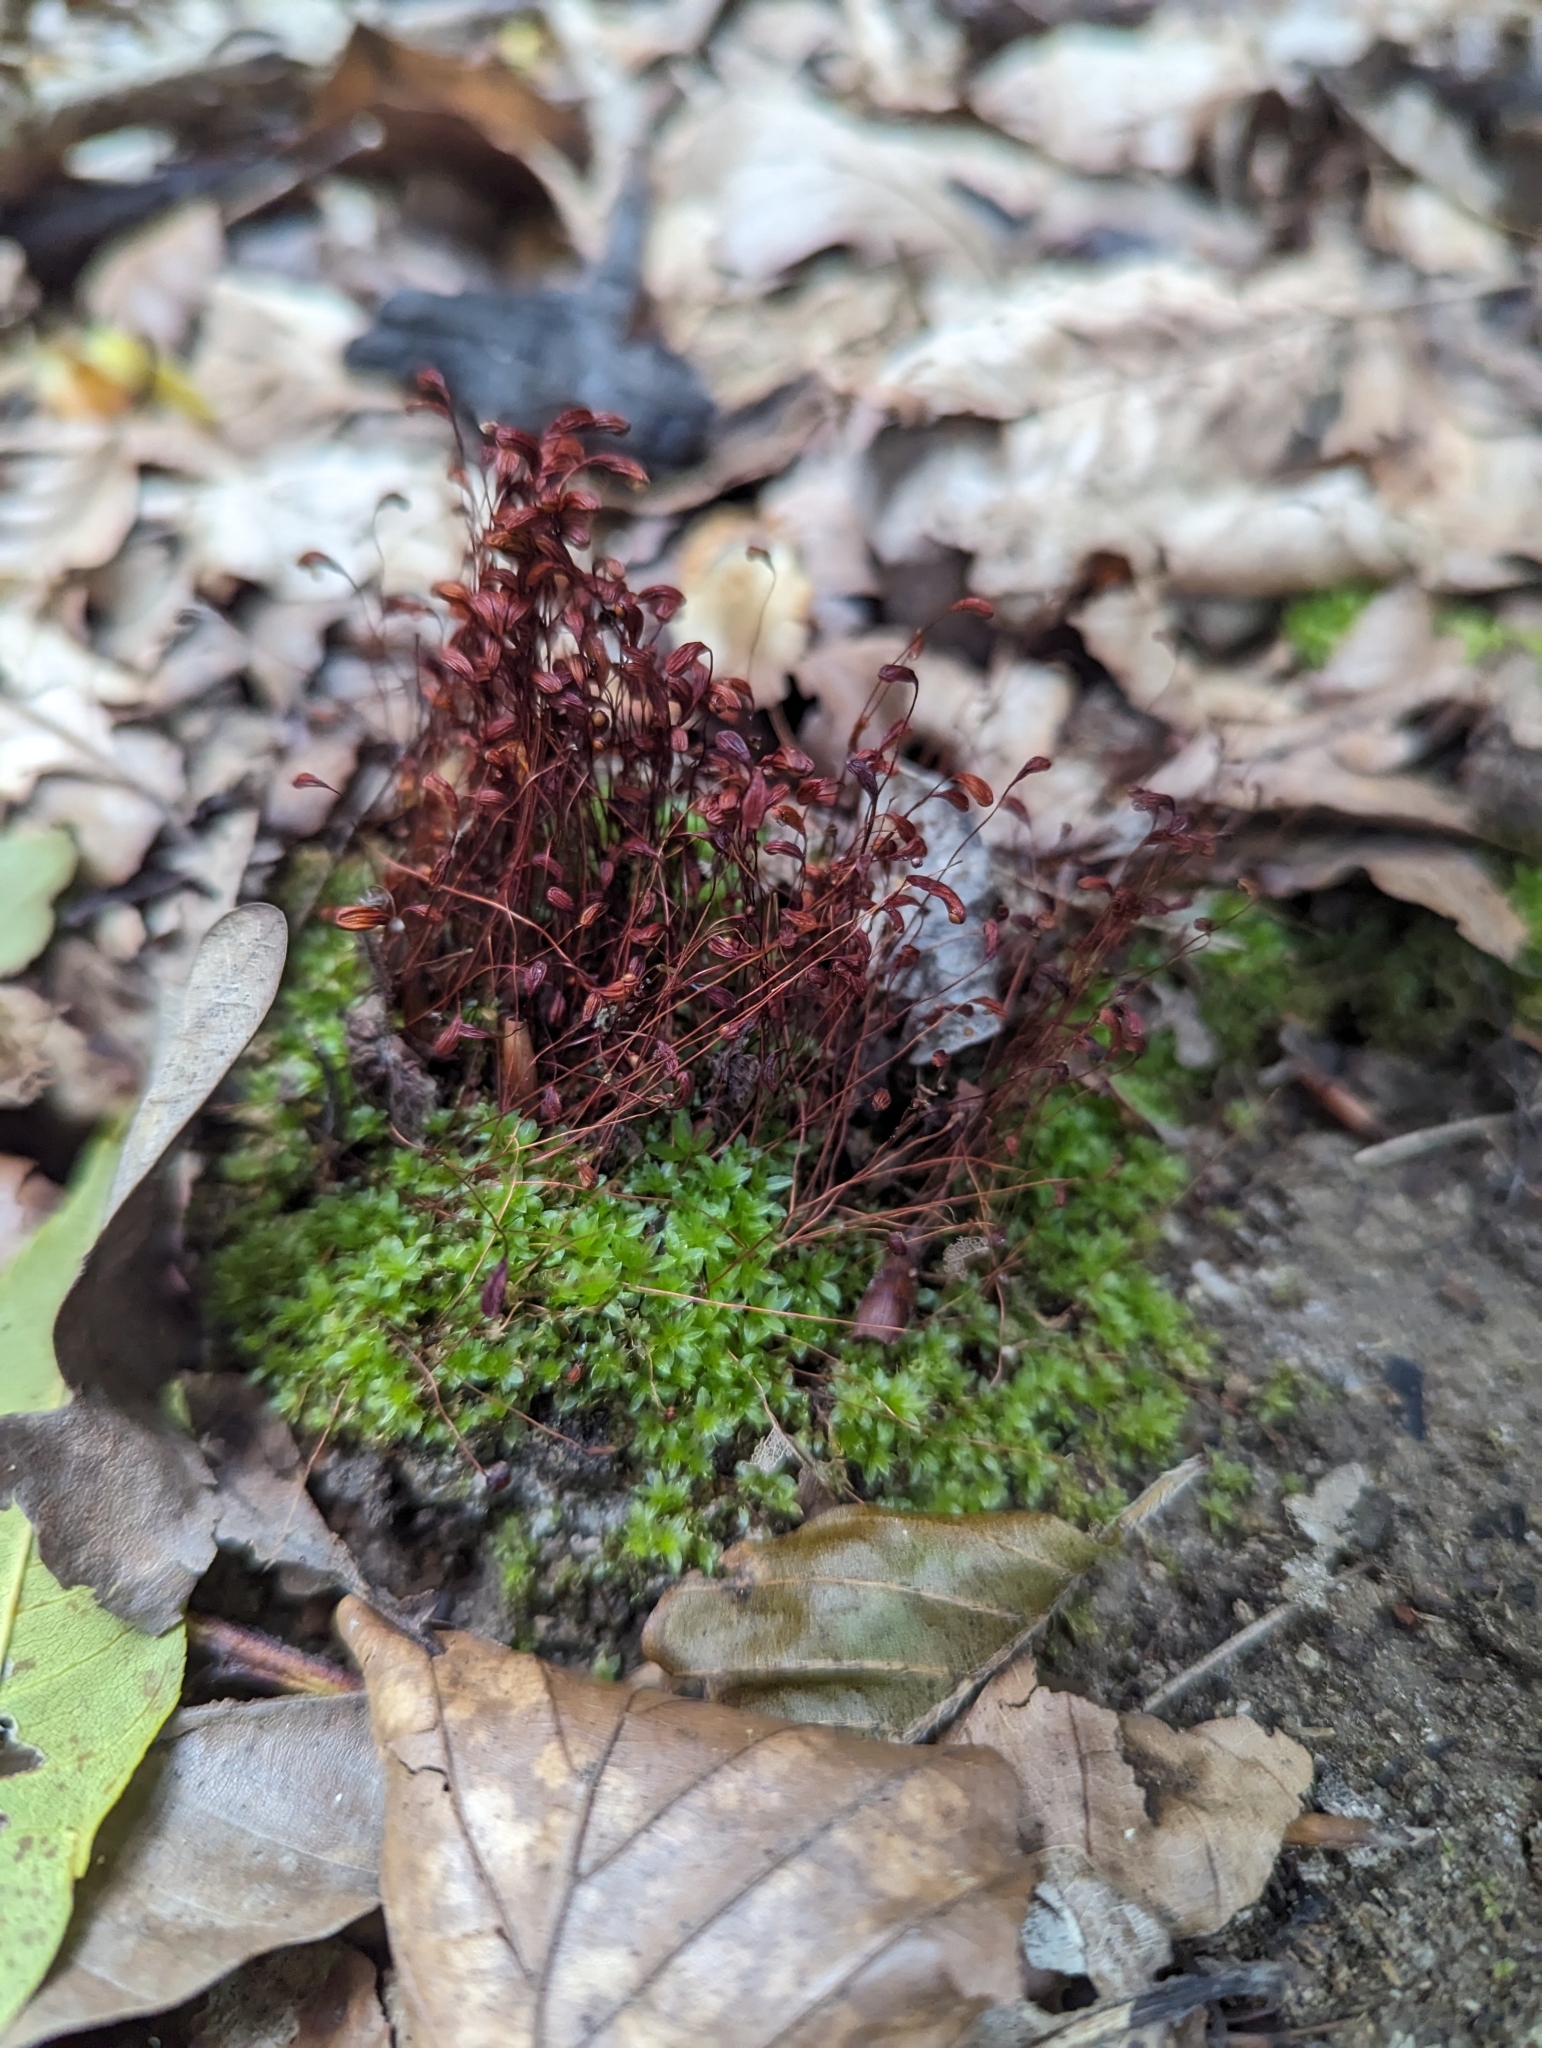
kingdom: Plantae
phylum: Bryophyta
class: Bryopsida
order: Funariales
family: Funariaceae
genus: Funaria
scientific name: Funaria hygrometrica
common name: Common cord moss
